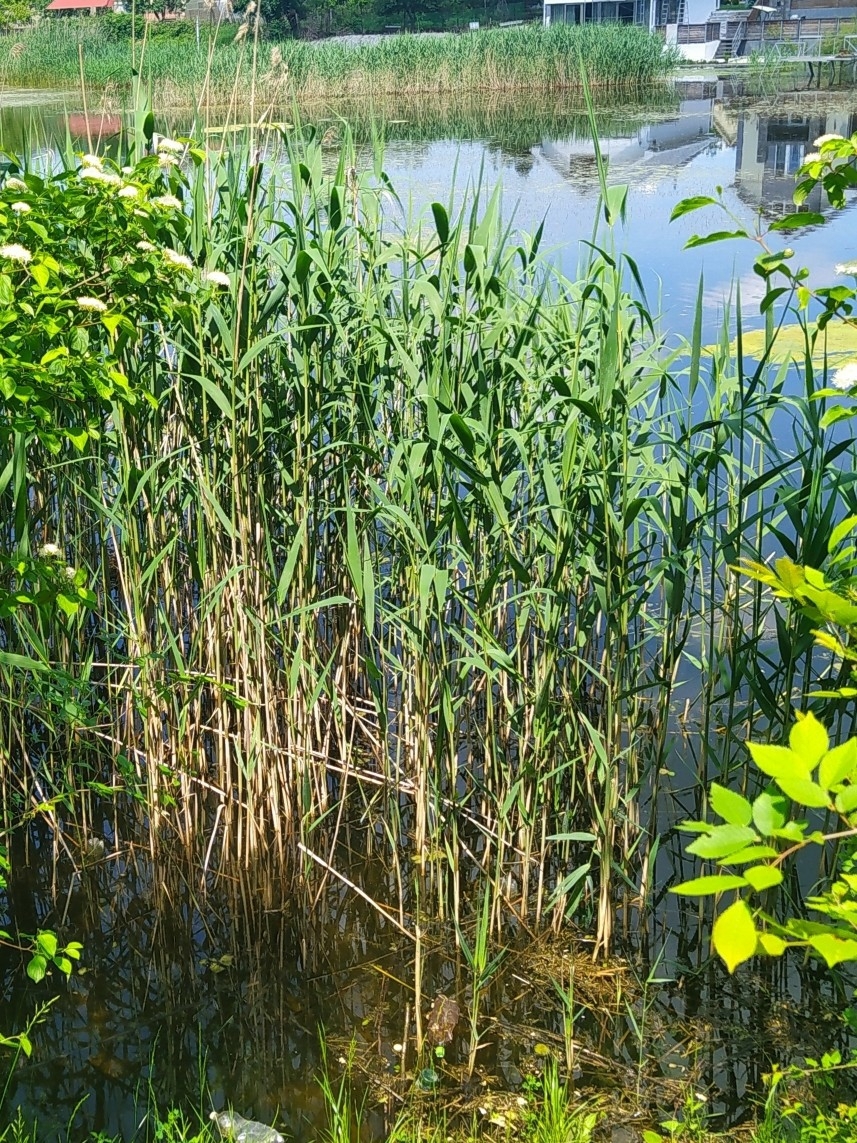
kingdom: Plantae
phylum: Tracheophyta
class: Liliopsida
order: Poales
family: Poaceae
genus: Phragmites
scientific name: Phragmites australis
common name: Common reed
